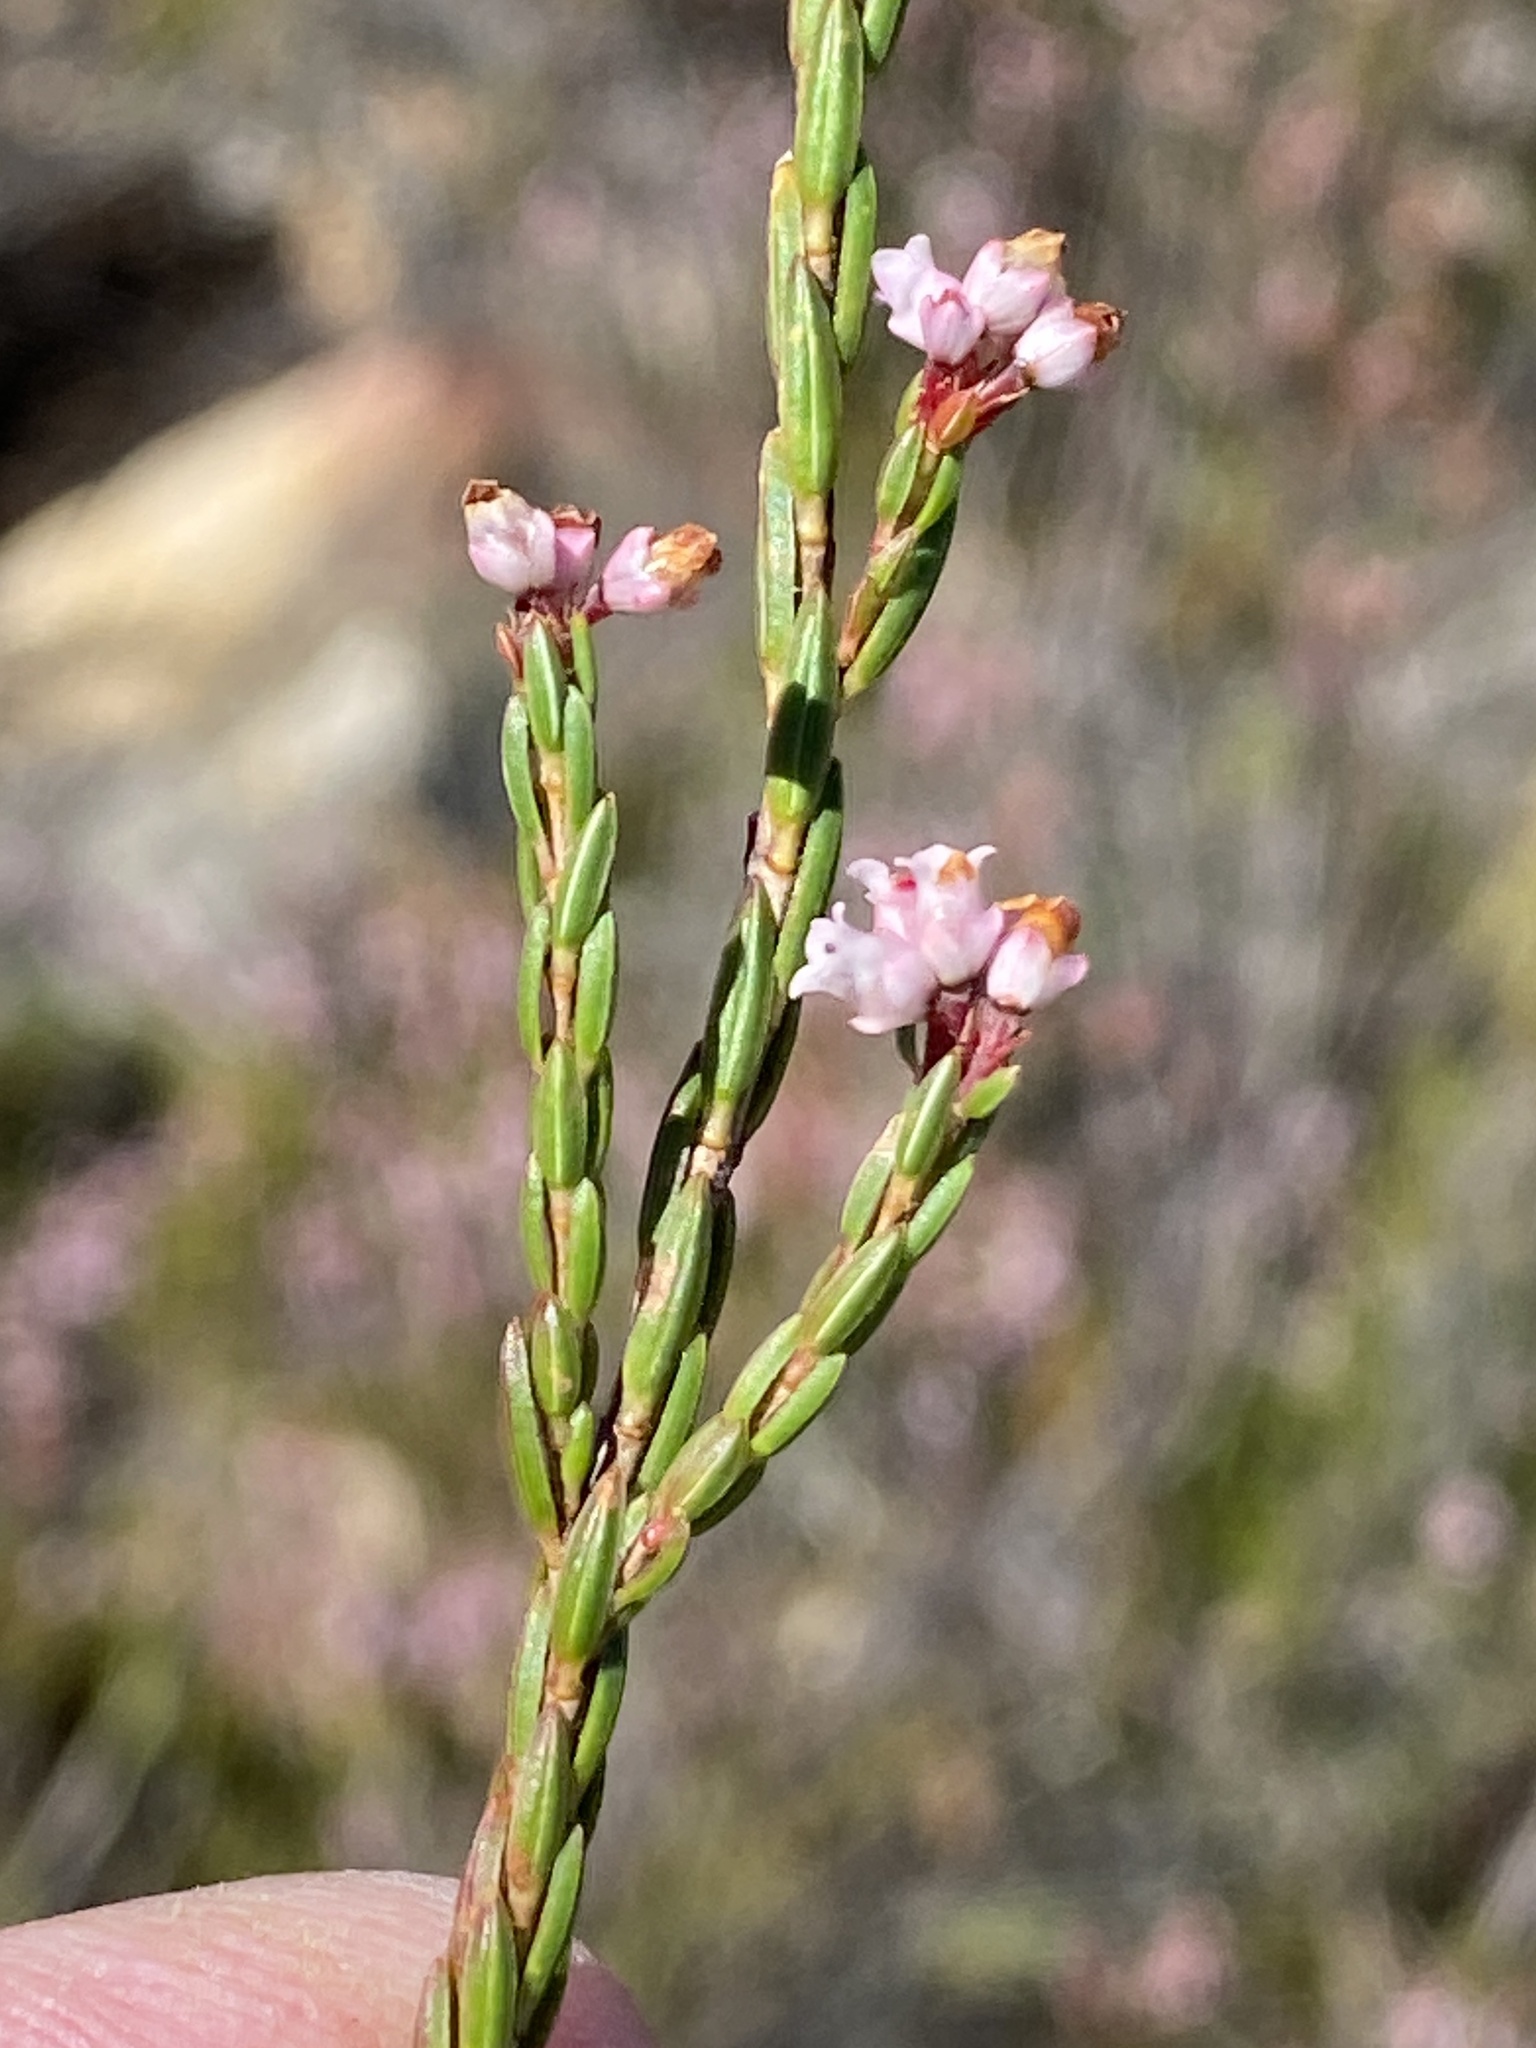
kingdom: Plantae
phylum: Tracheophyta
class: Magnoliopsida
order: Ericales
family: Ericaceae
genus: Erica
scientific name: Erica articularis
